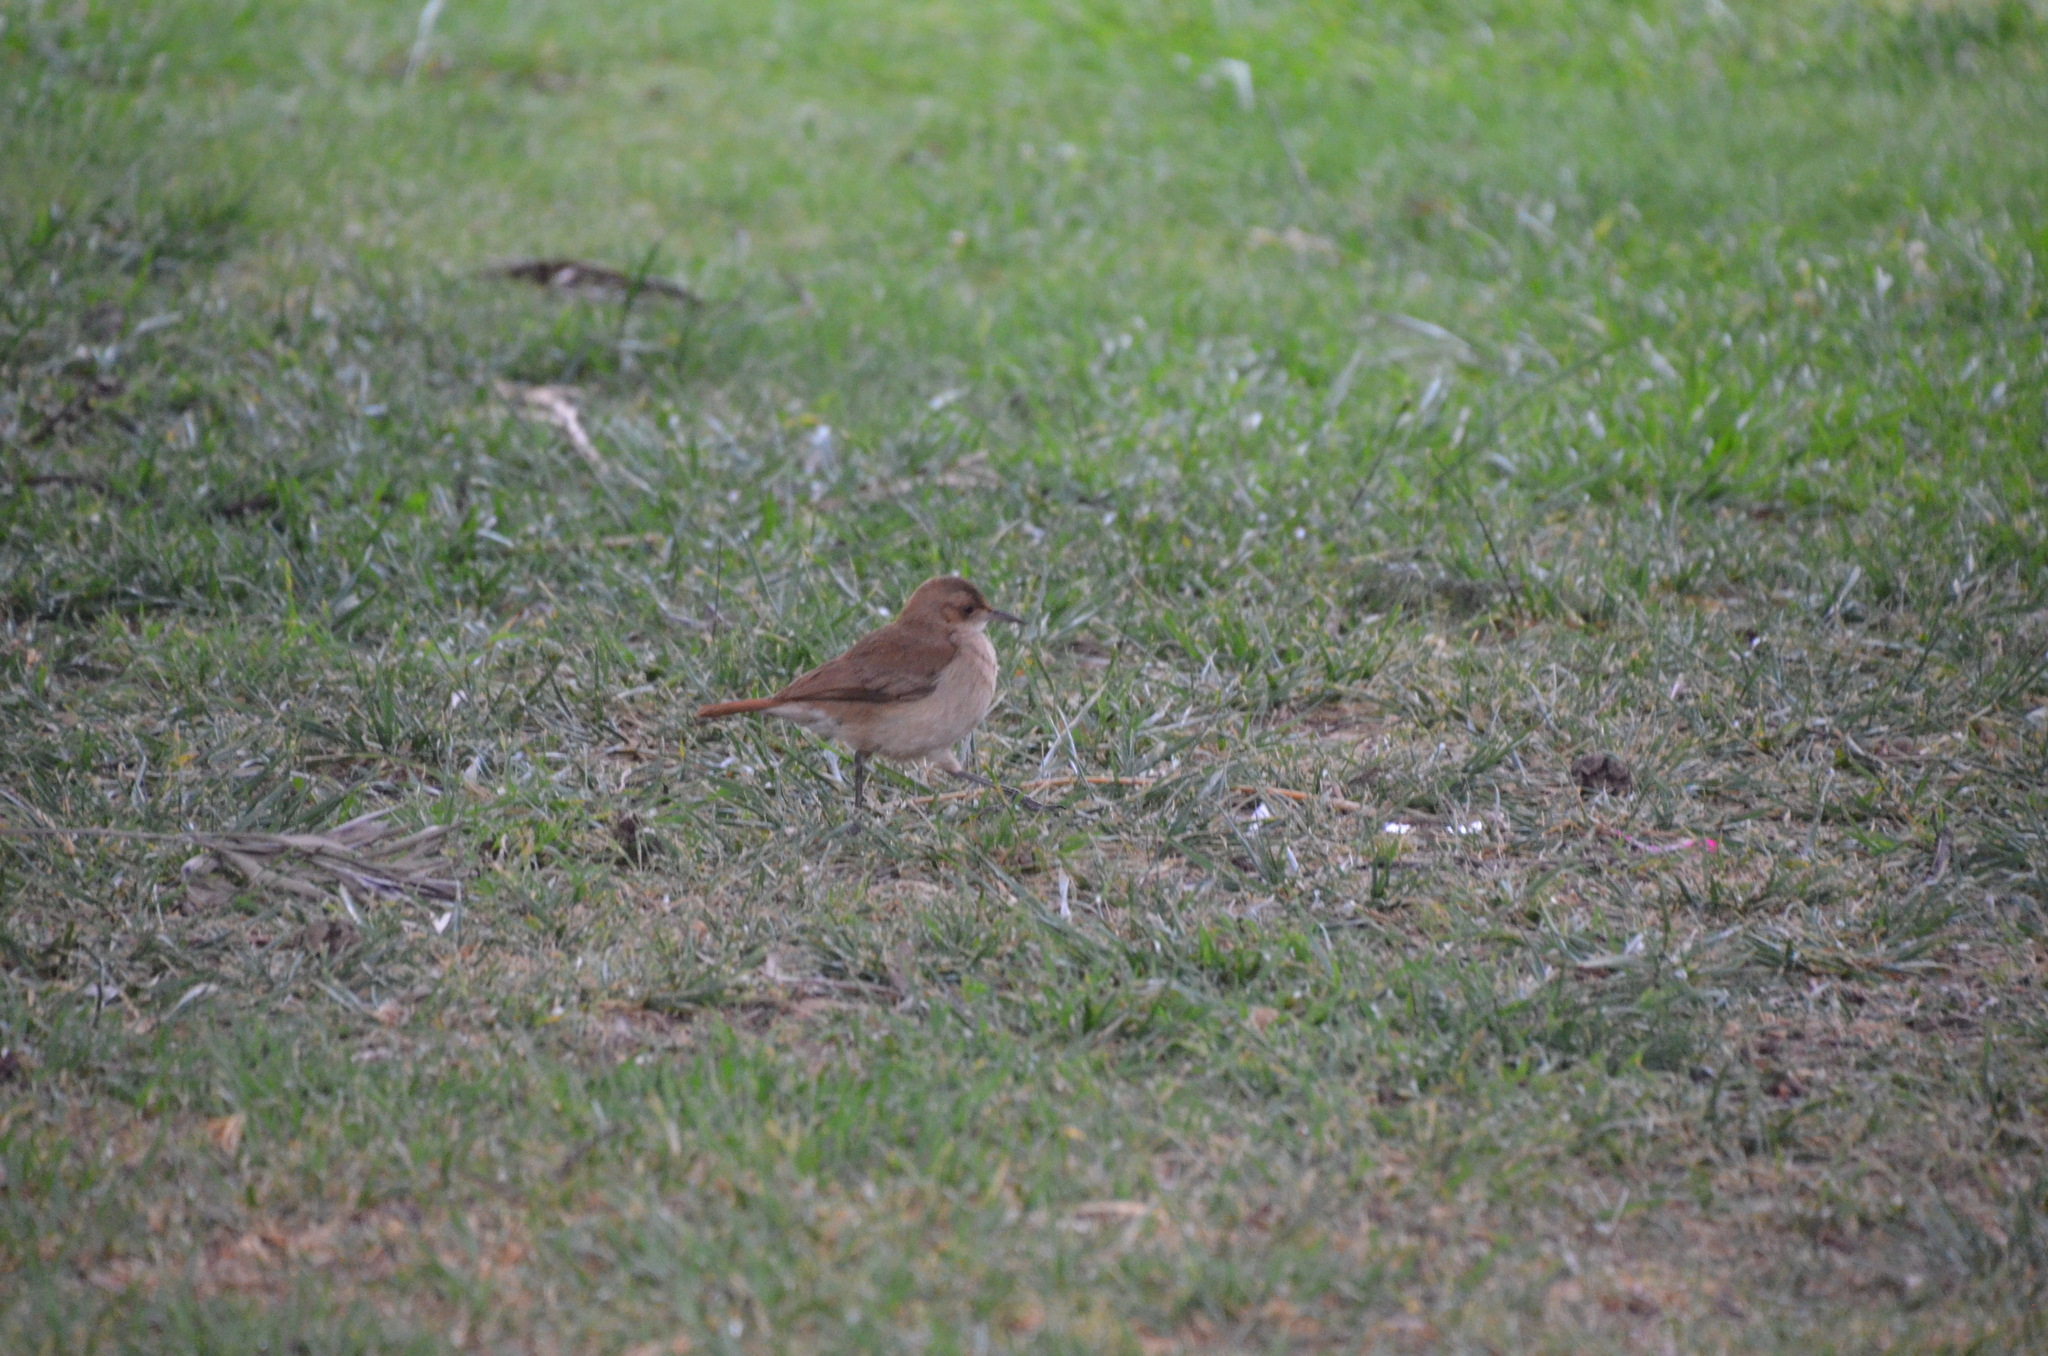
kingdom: Animalia
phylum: Chordata
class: Aves
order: Passeriformes
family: Furnariidae
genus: Furnarius
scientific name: Furnarius rufus
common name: Rufous hornero
